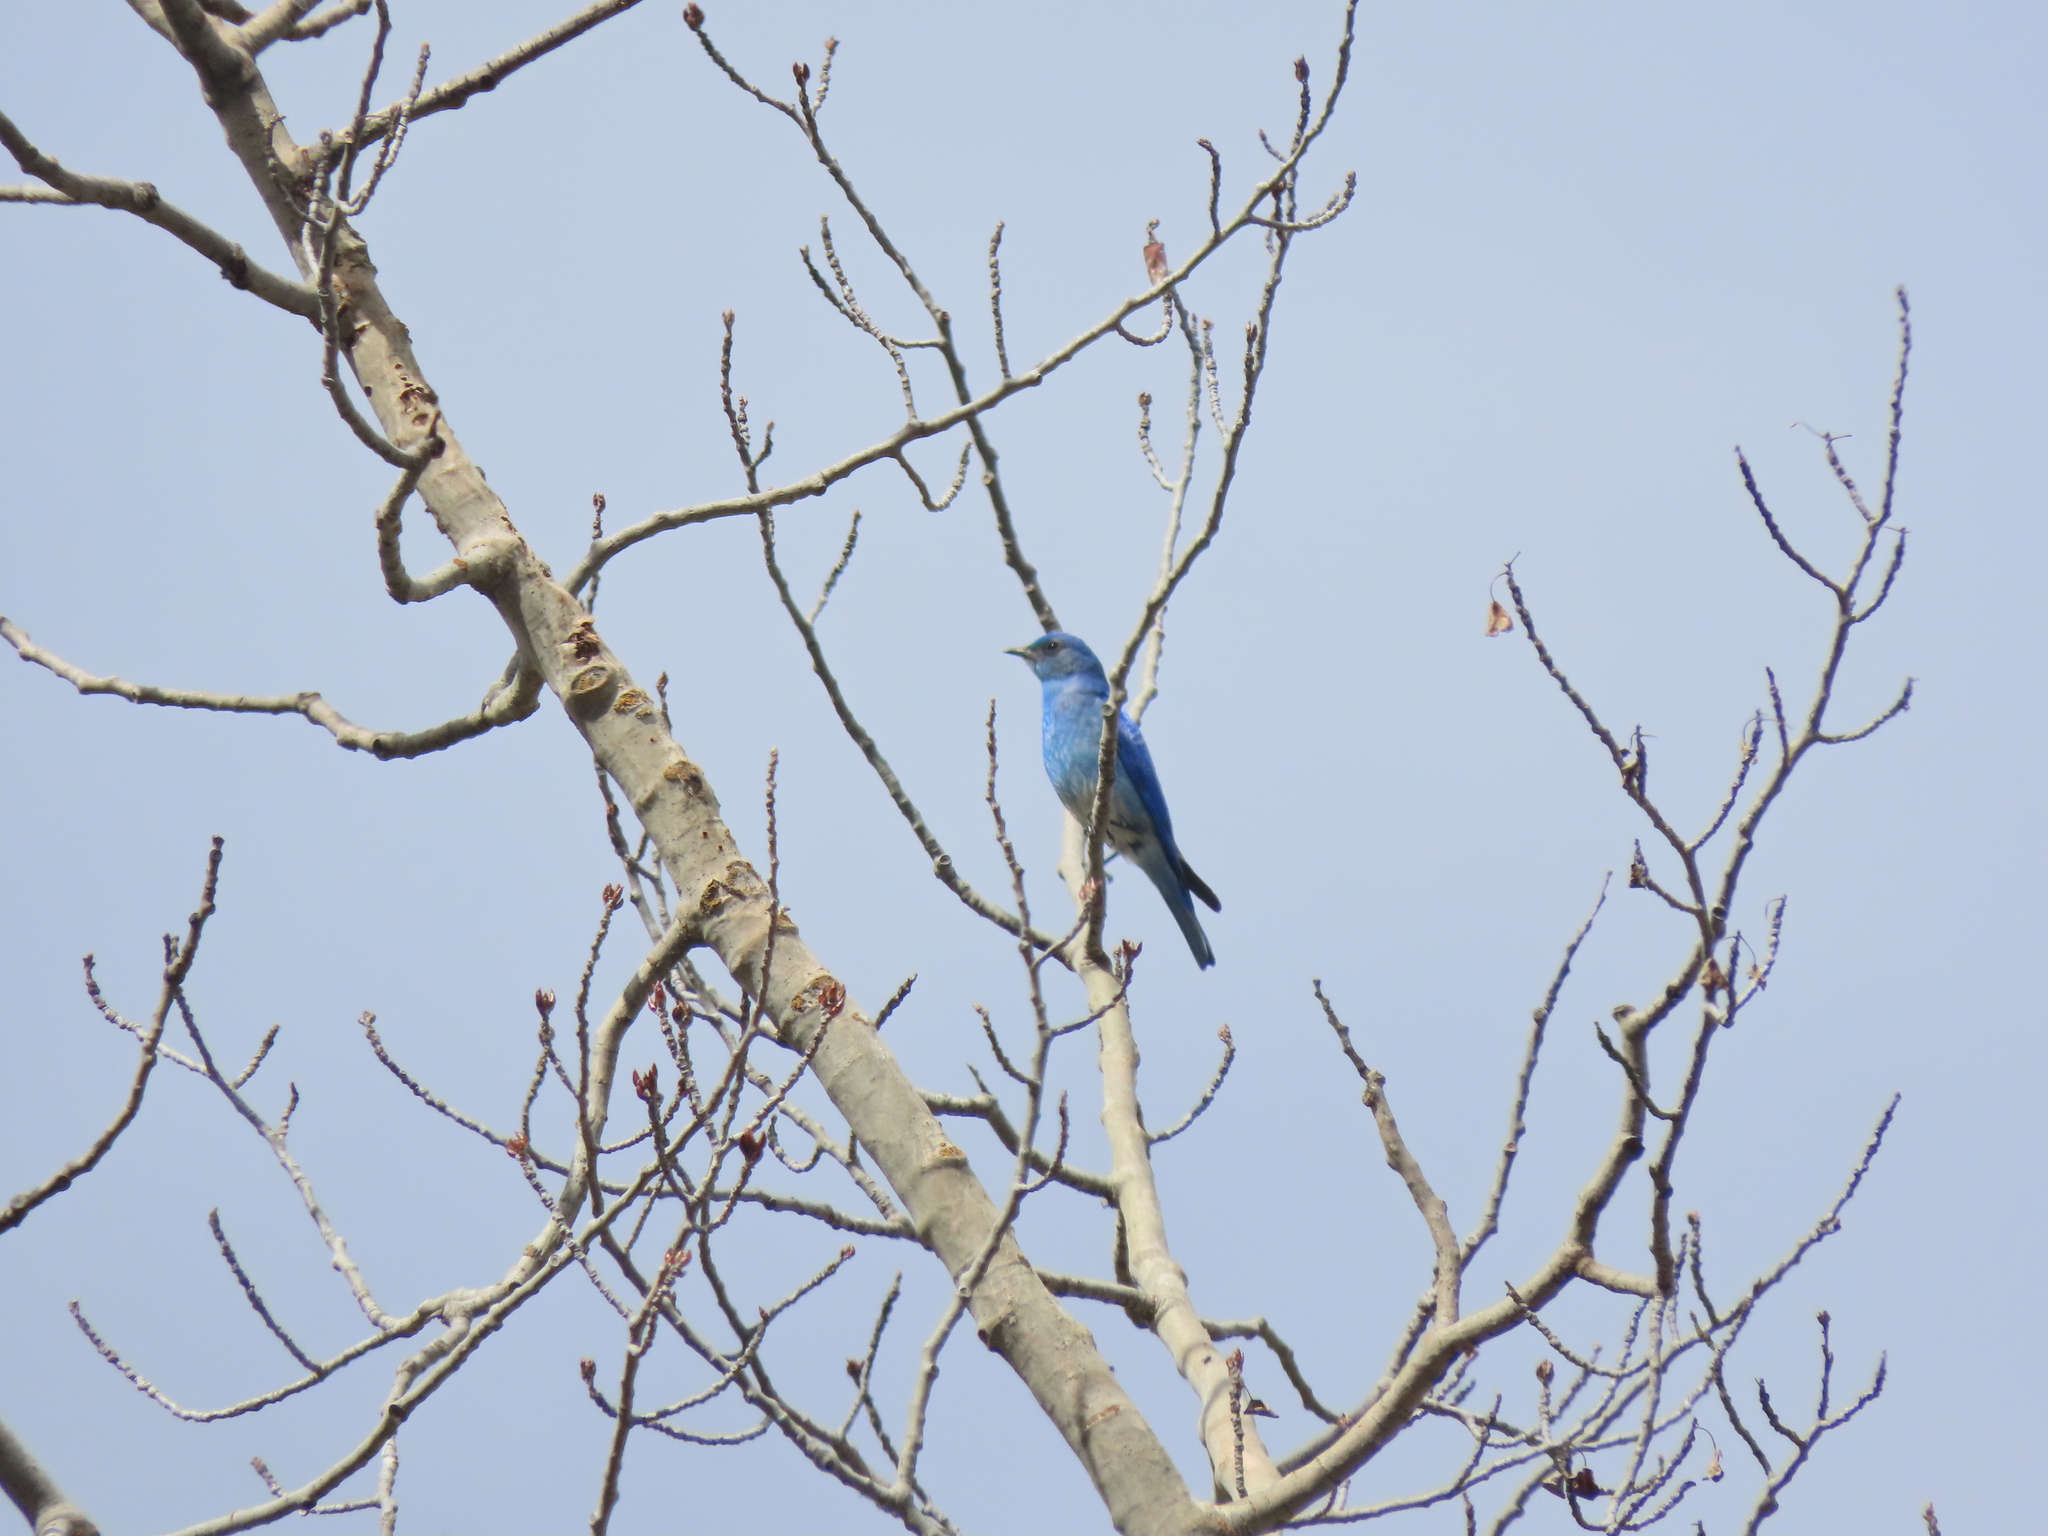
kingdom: Animalia
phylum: Chordata
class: Aves
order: Passeriformes
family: Turdidae
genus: Sialia
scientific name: Sialia currucoides
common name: Mountain bluebird
